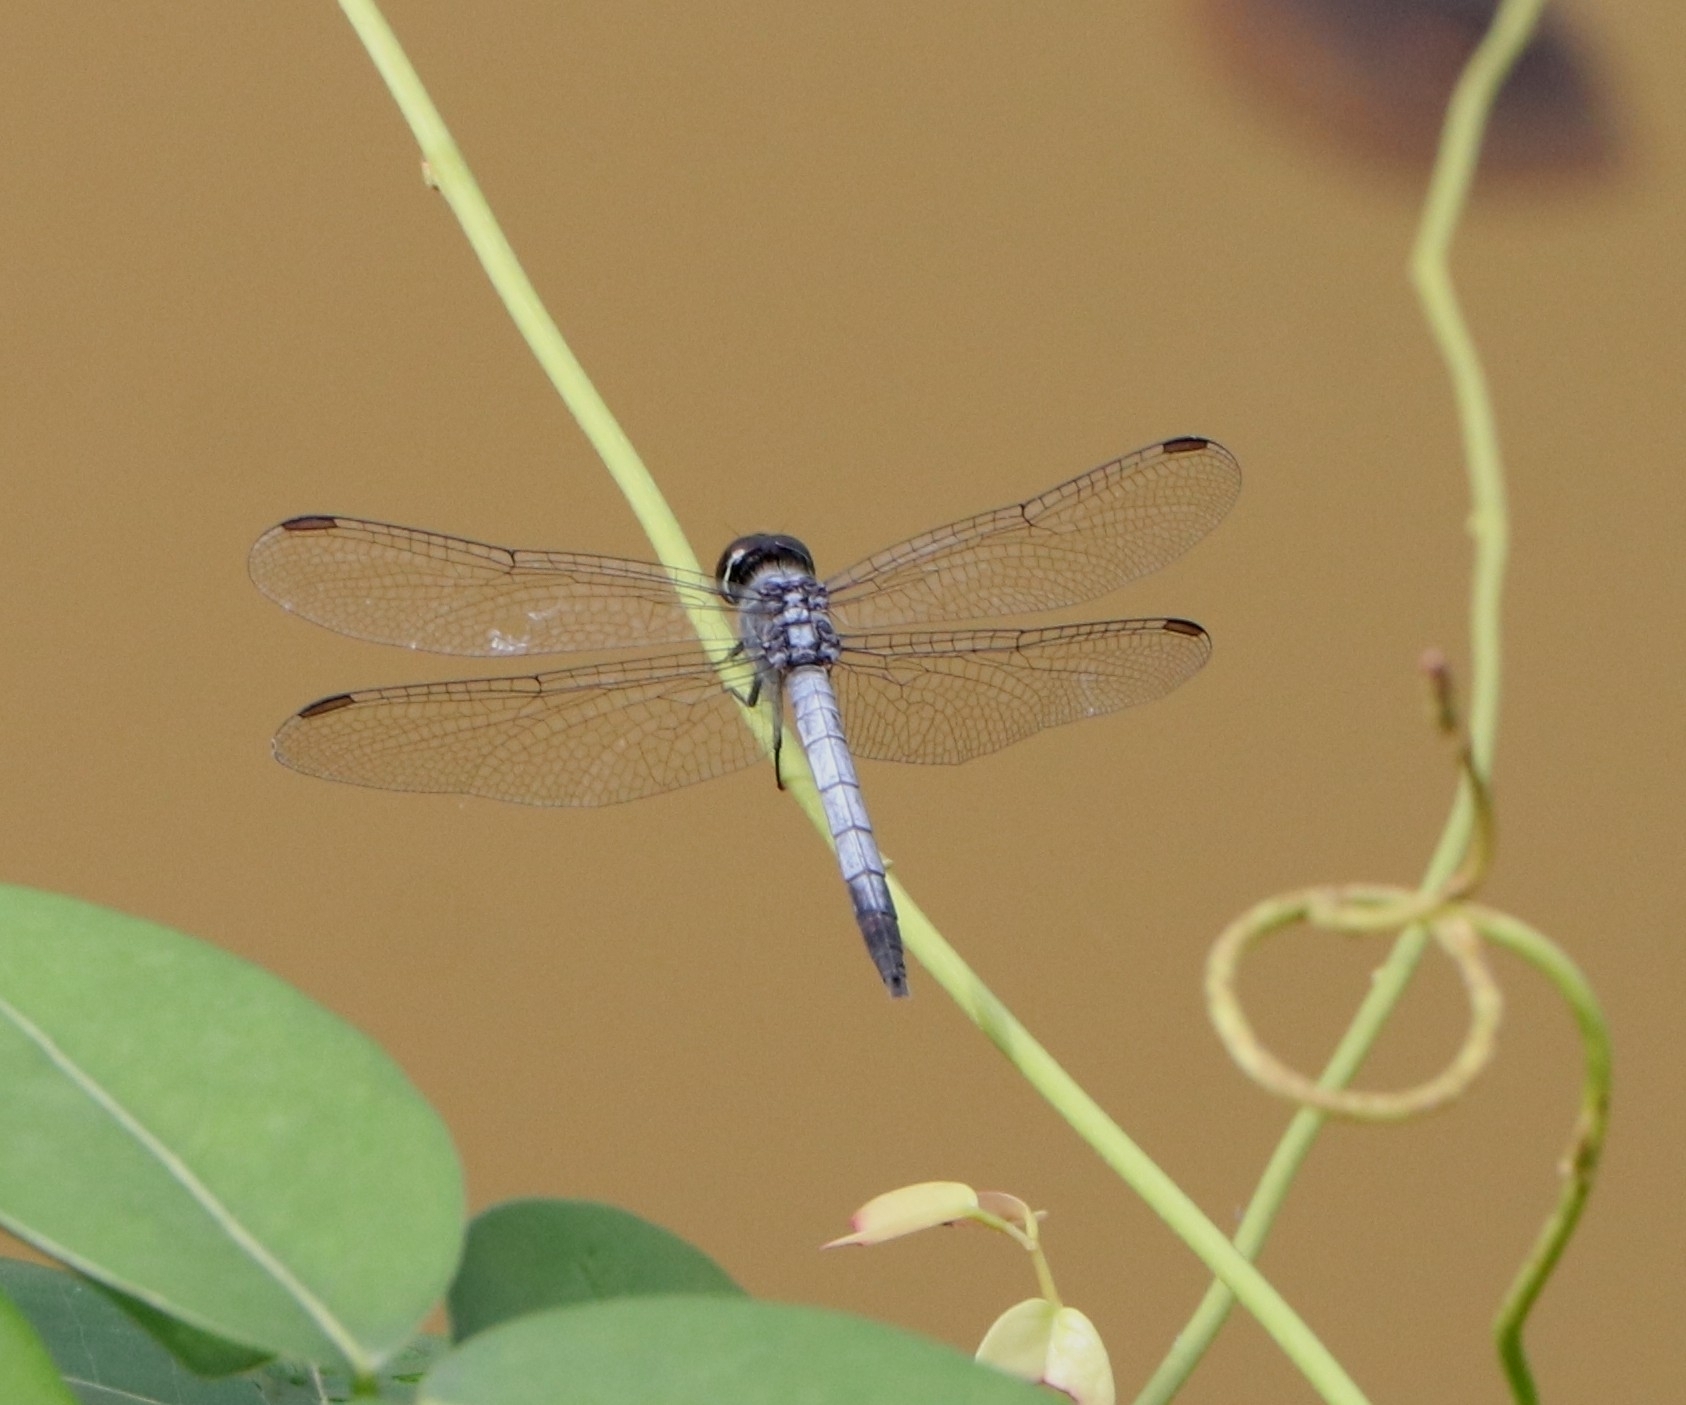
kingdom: Animalia
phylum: Arthropoda
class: Insecta
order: Odonata
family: Libellulidae
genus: Brachydiplax
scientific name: Brachydiplax sobrina
